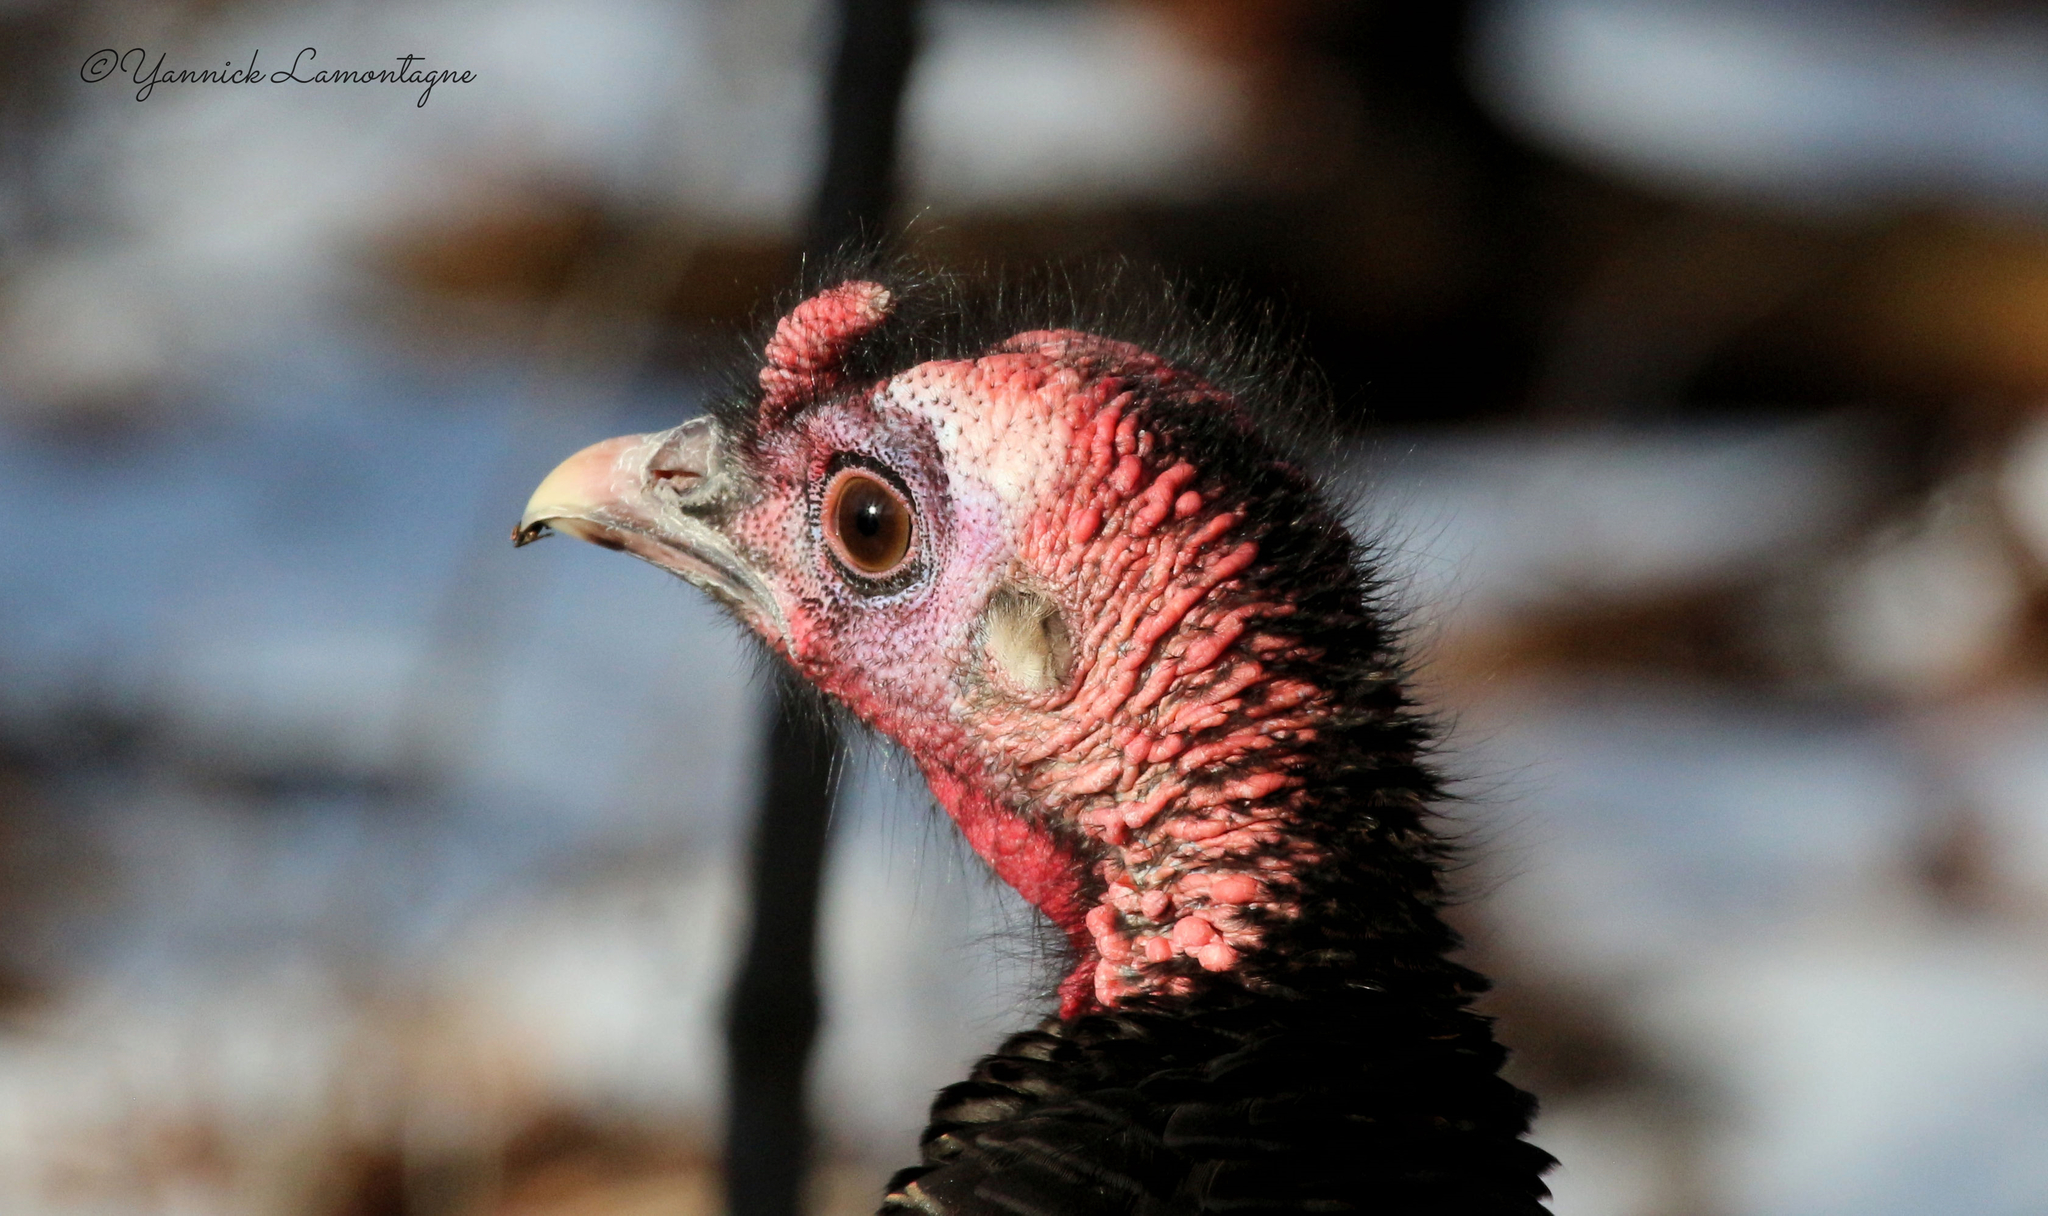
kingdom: Animalia
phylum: Chordata
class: Aves
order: Galliformes
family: Phasianidae
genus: Meleagris
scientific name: Meleagris gallopavo
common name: Wild turkey
